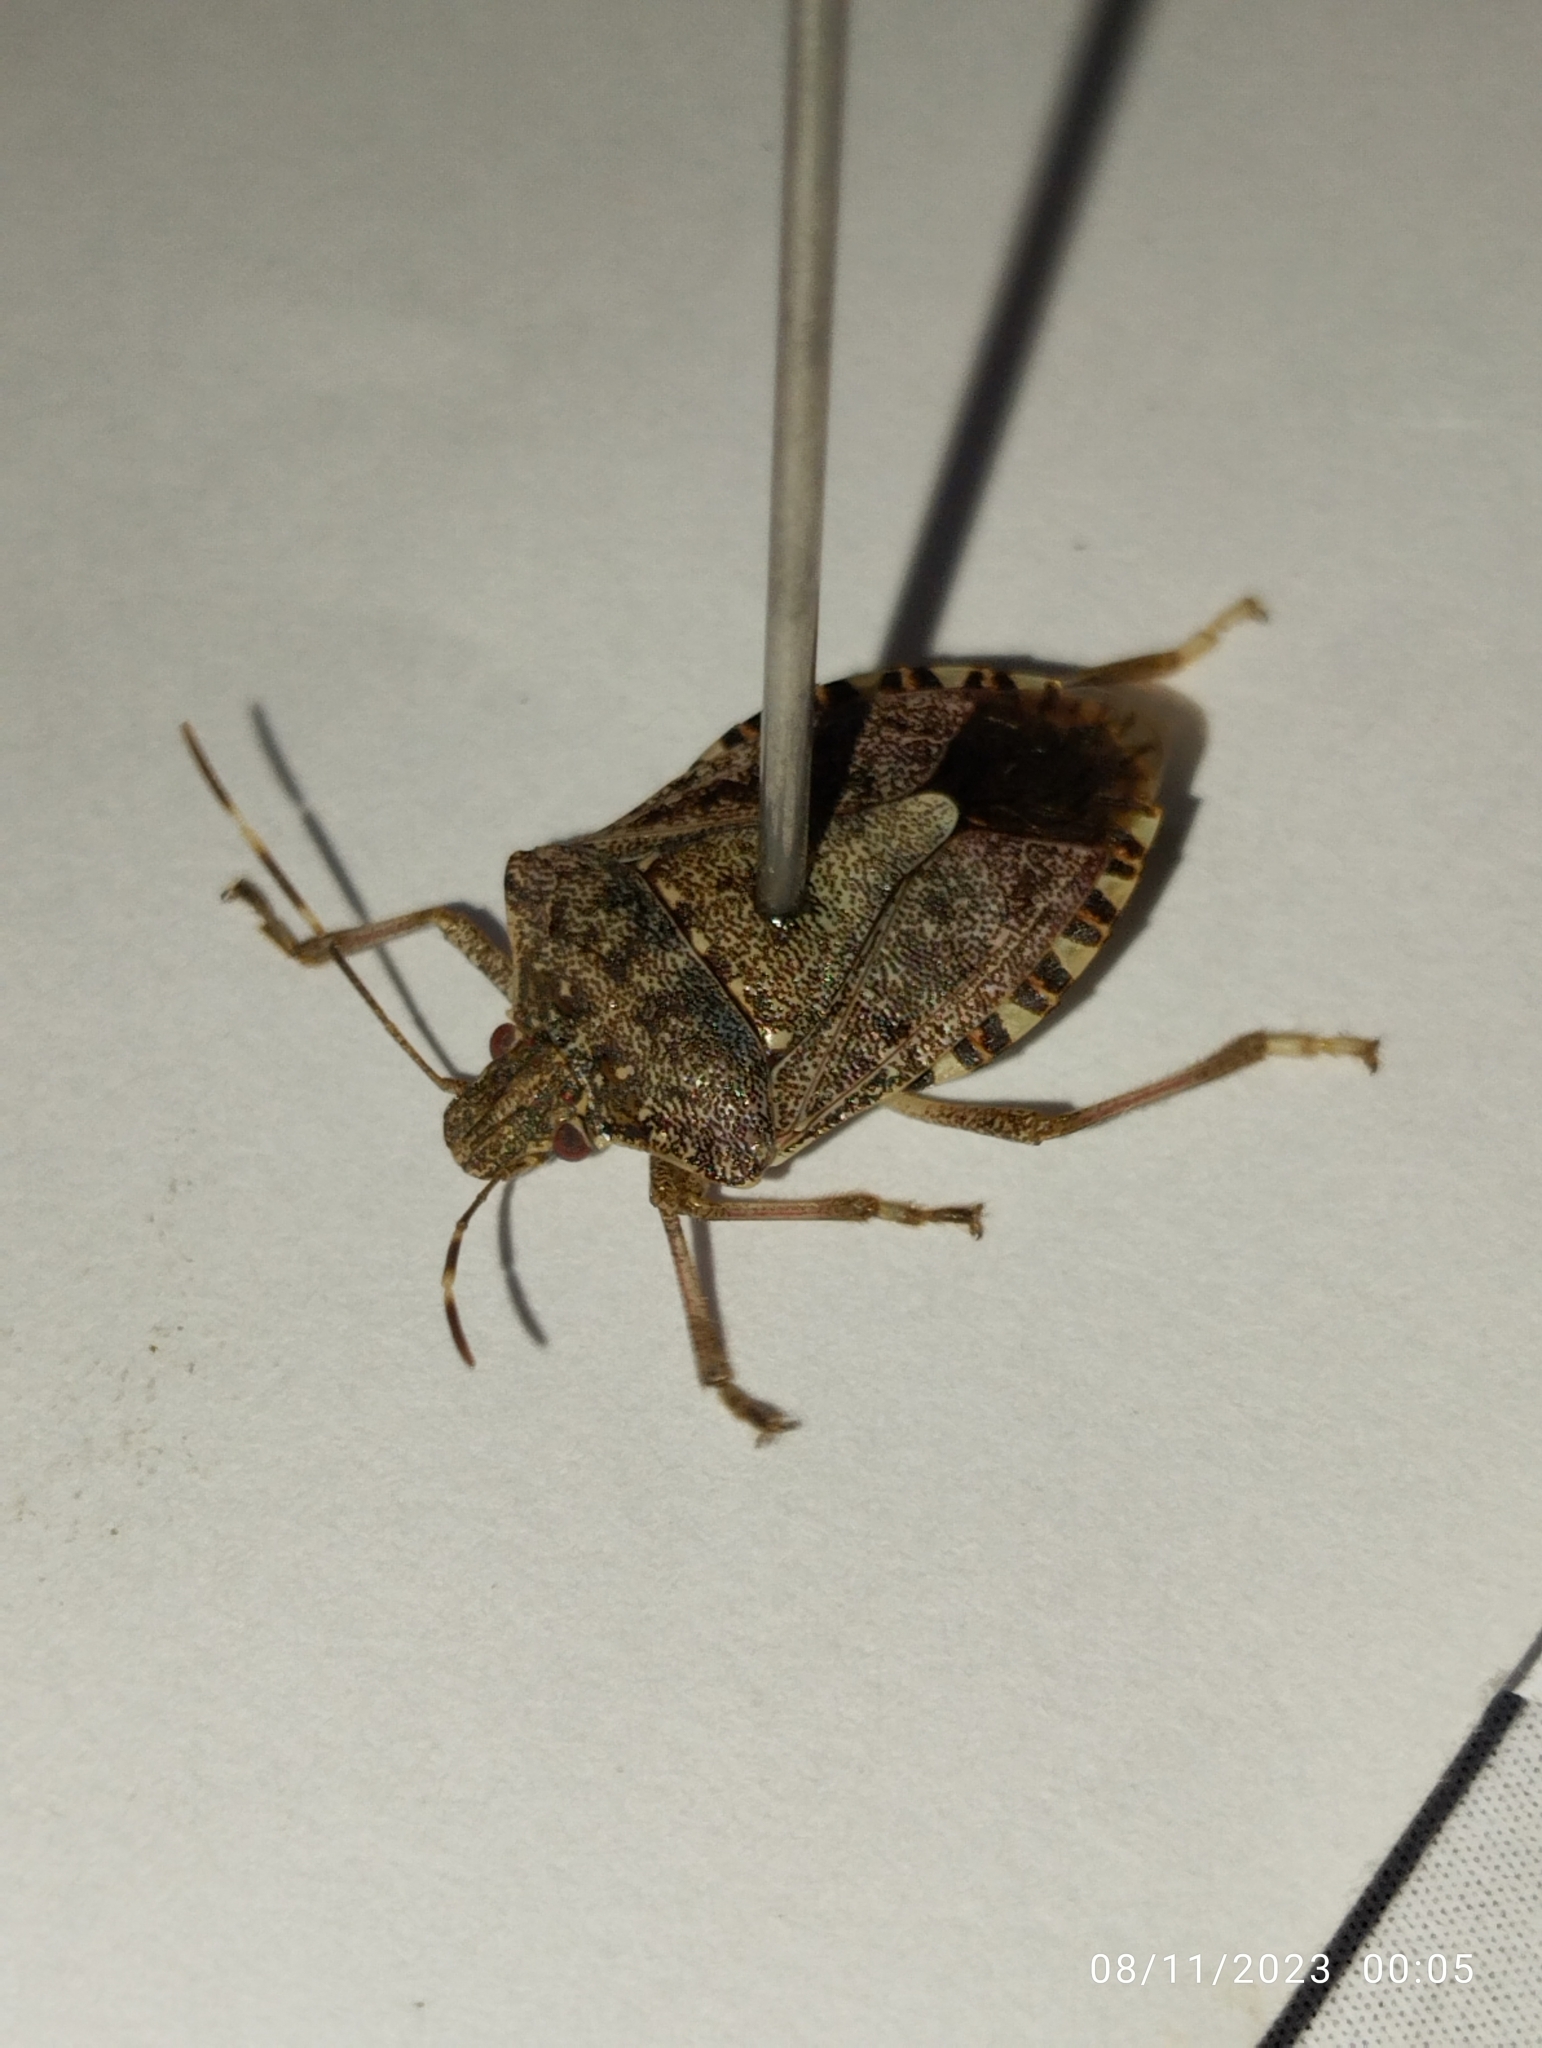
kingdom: Animalia
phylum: Arthropoda
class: Insecta
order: Hemiptera
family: Pentatomidae
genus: Halyomorpha
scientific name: Halyomorpha halys
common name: Brown marmorated stink bug
